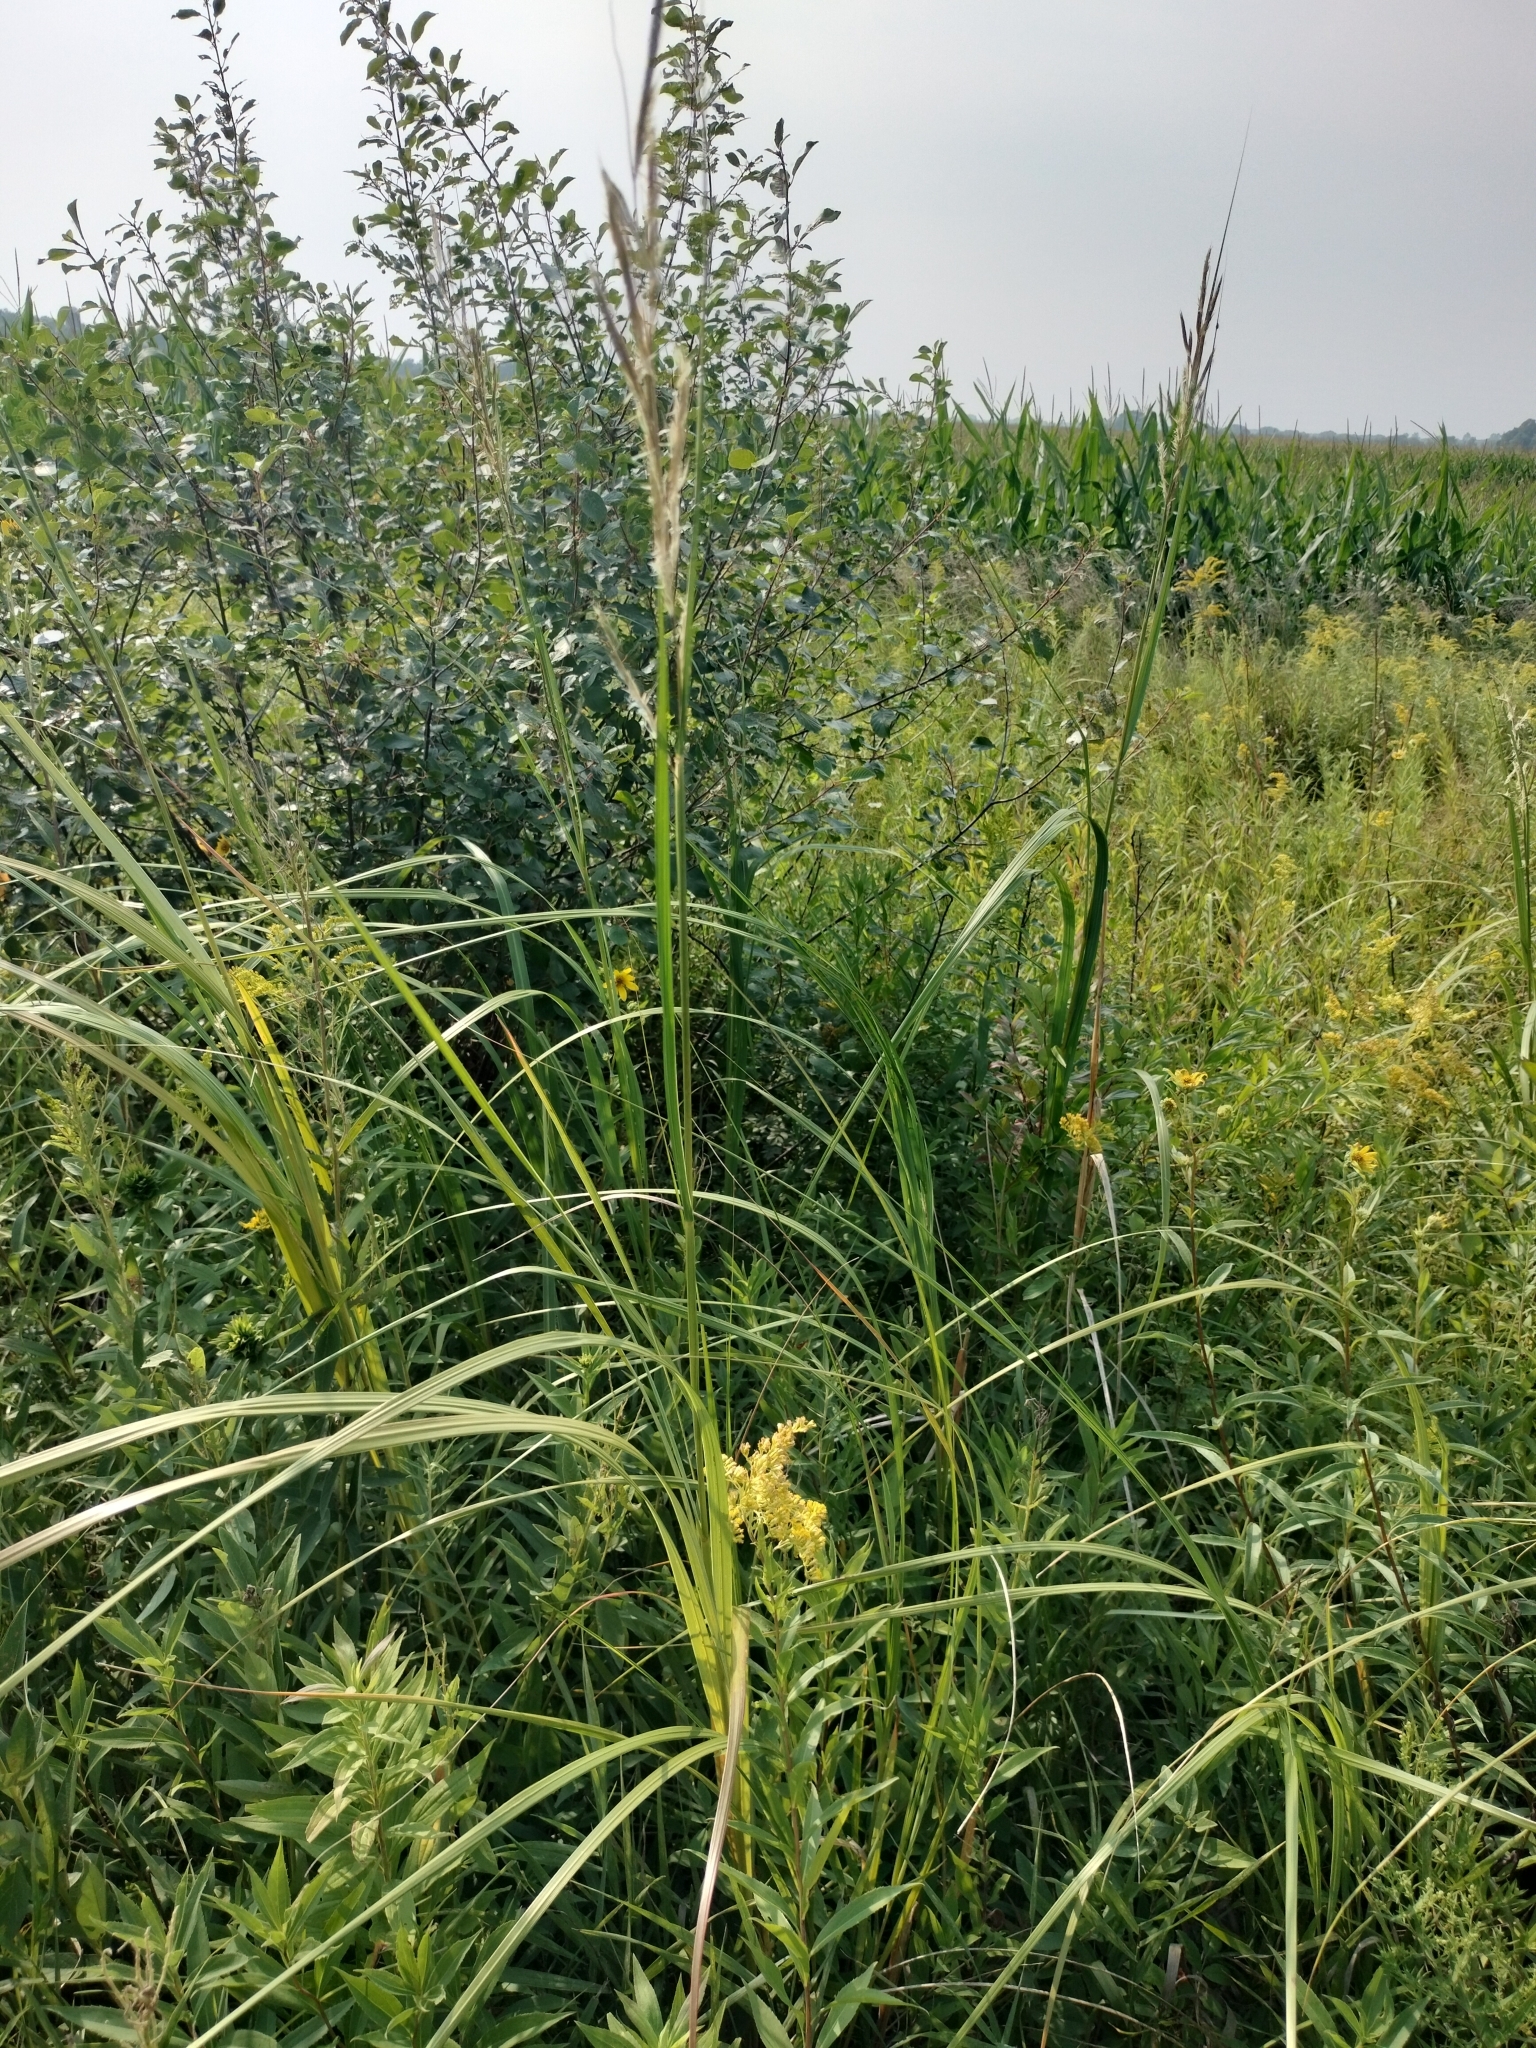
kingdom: Plantae
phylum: Tracheophyta
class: Liliopsida
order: Poales
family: Poaceae
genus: Sporobolus
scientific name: Sporobolus michauxianus
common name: Freshwater cordgrass
